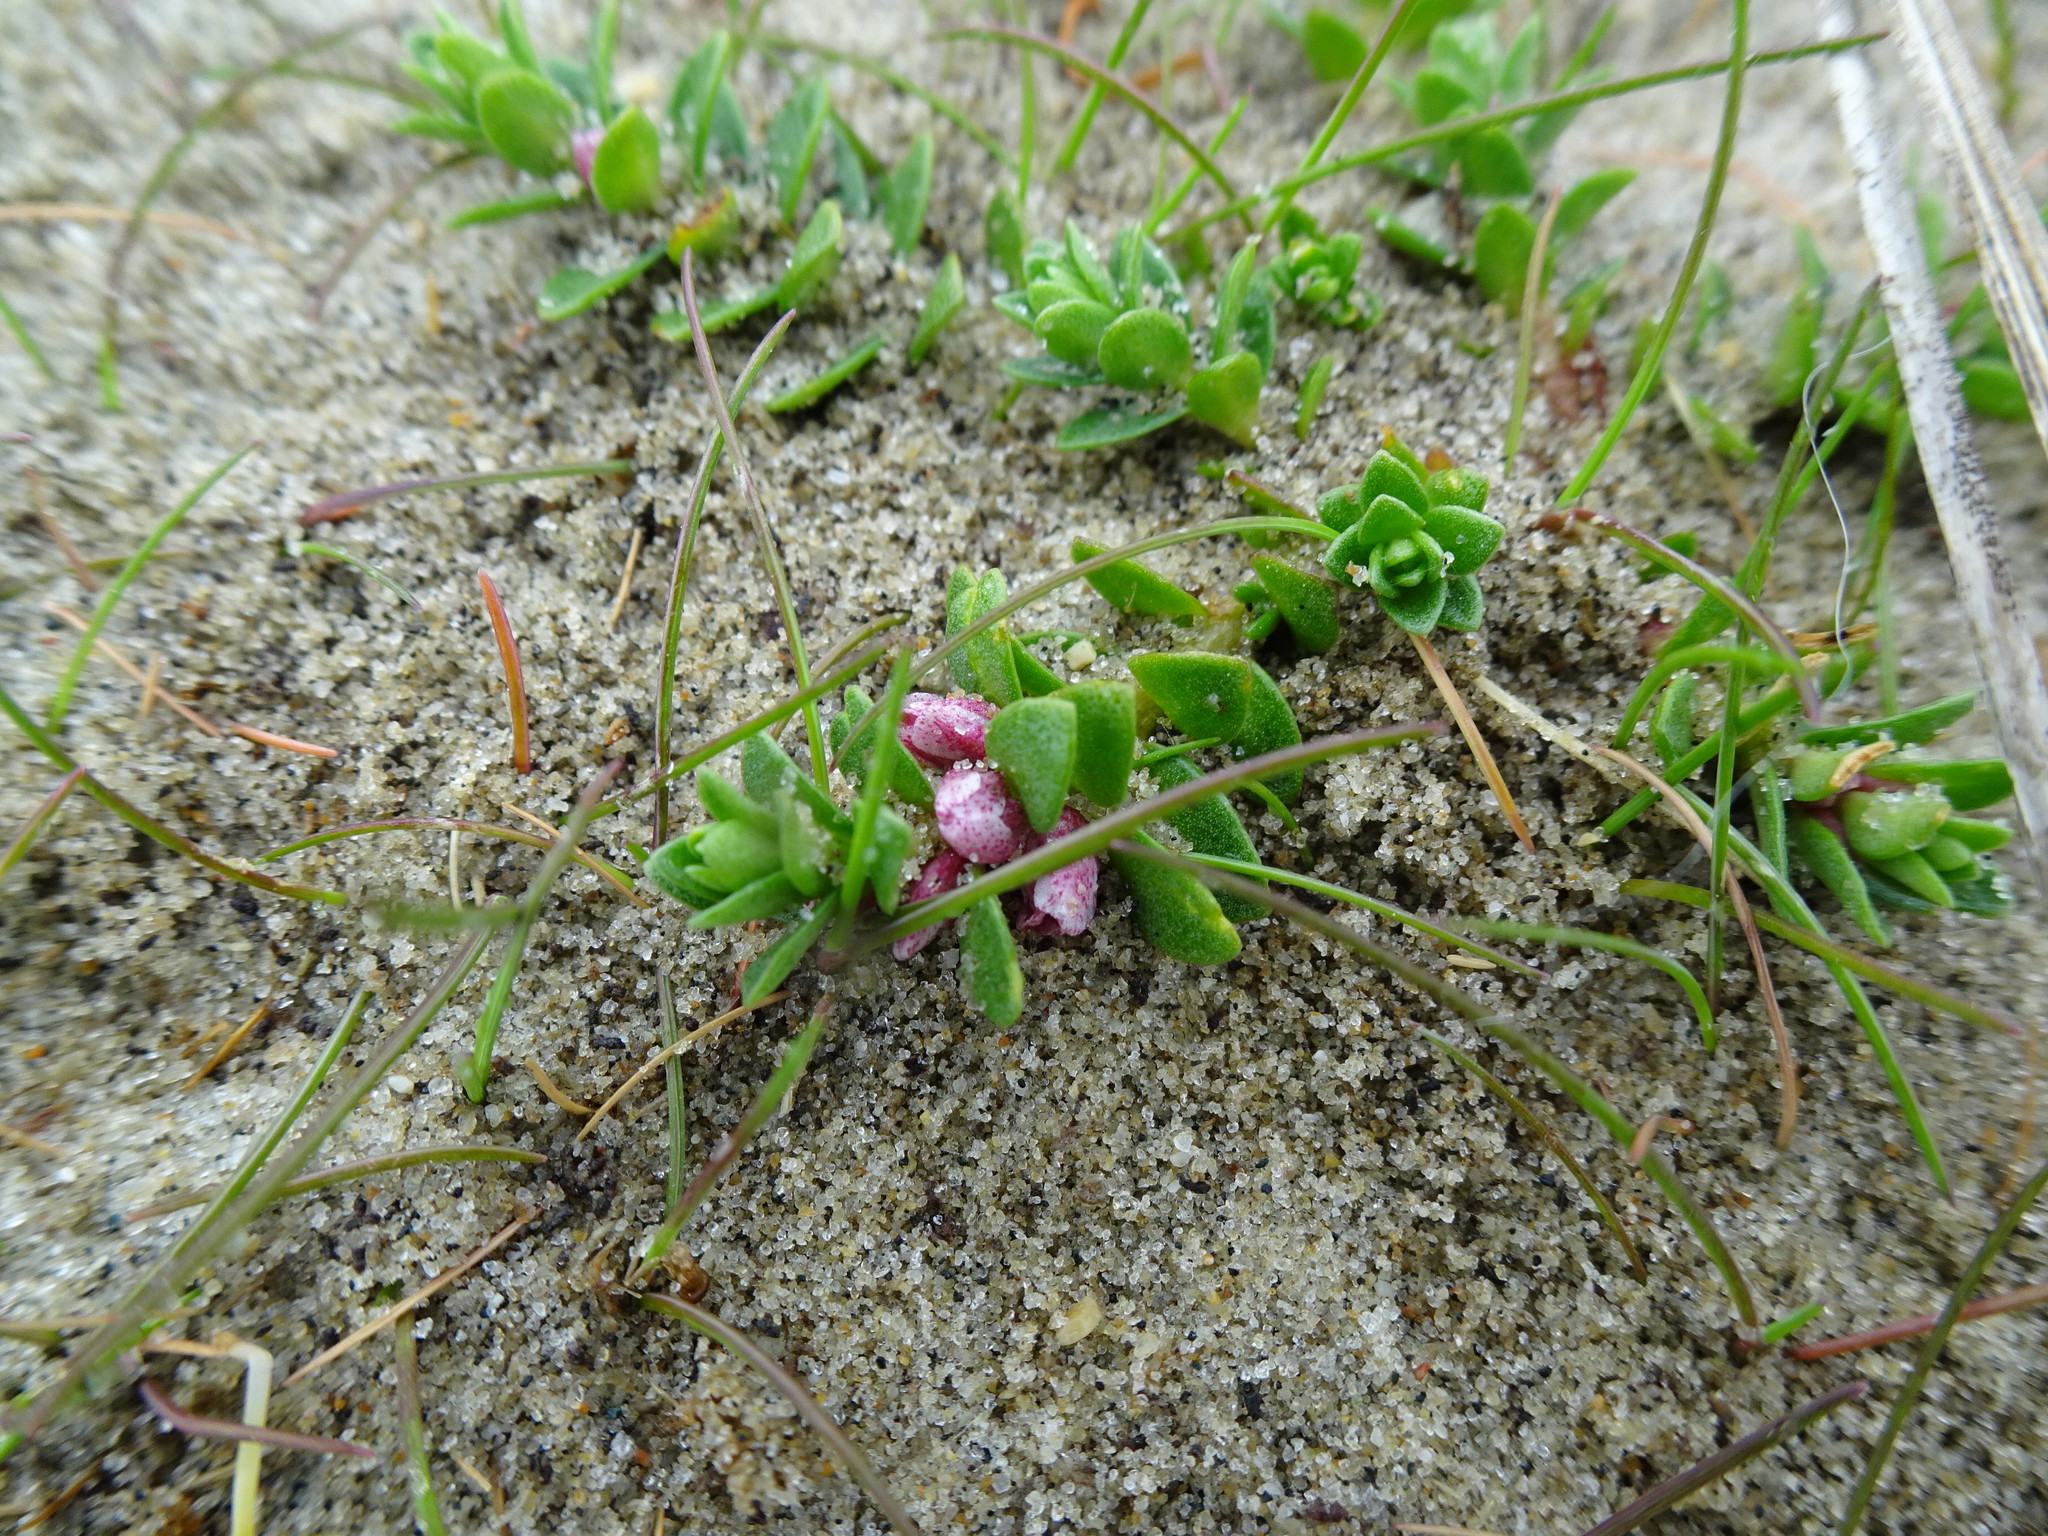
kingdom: Plantae
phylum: Tracheophyta
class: Magnoliopsida
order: Ericales
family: Primulaceae
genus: Lysimachia
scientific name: Lysimachia maritima
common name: Sea milkwort
